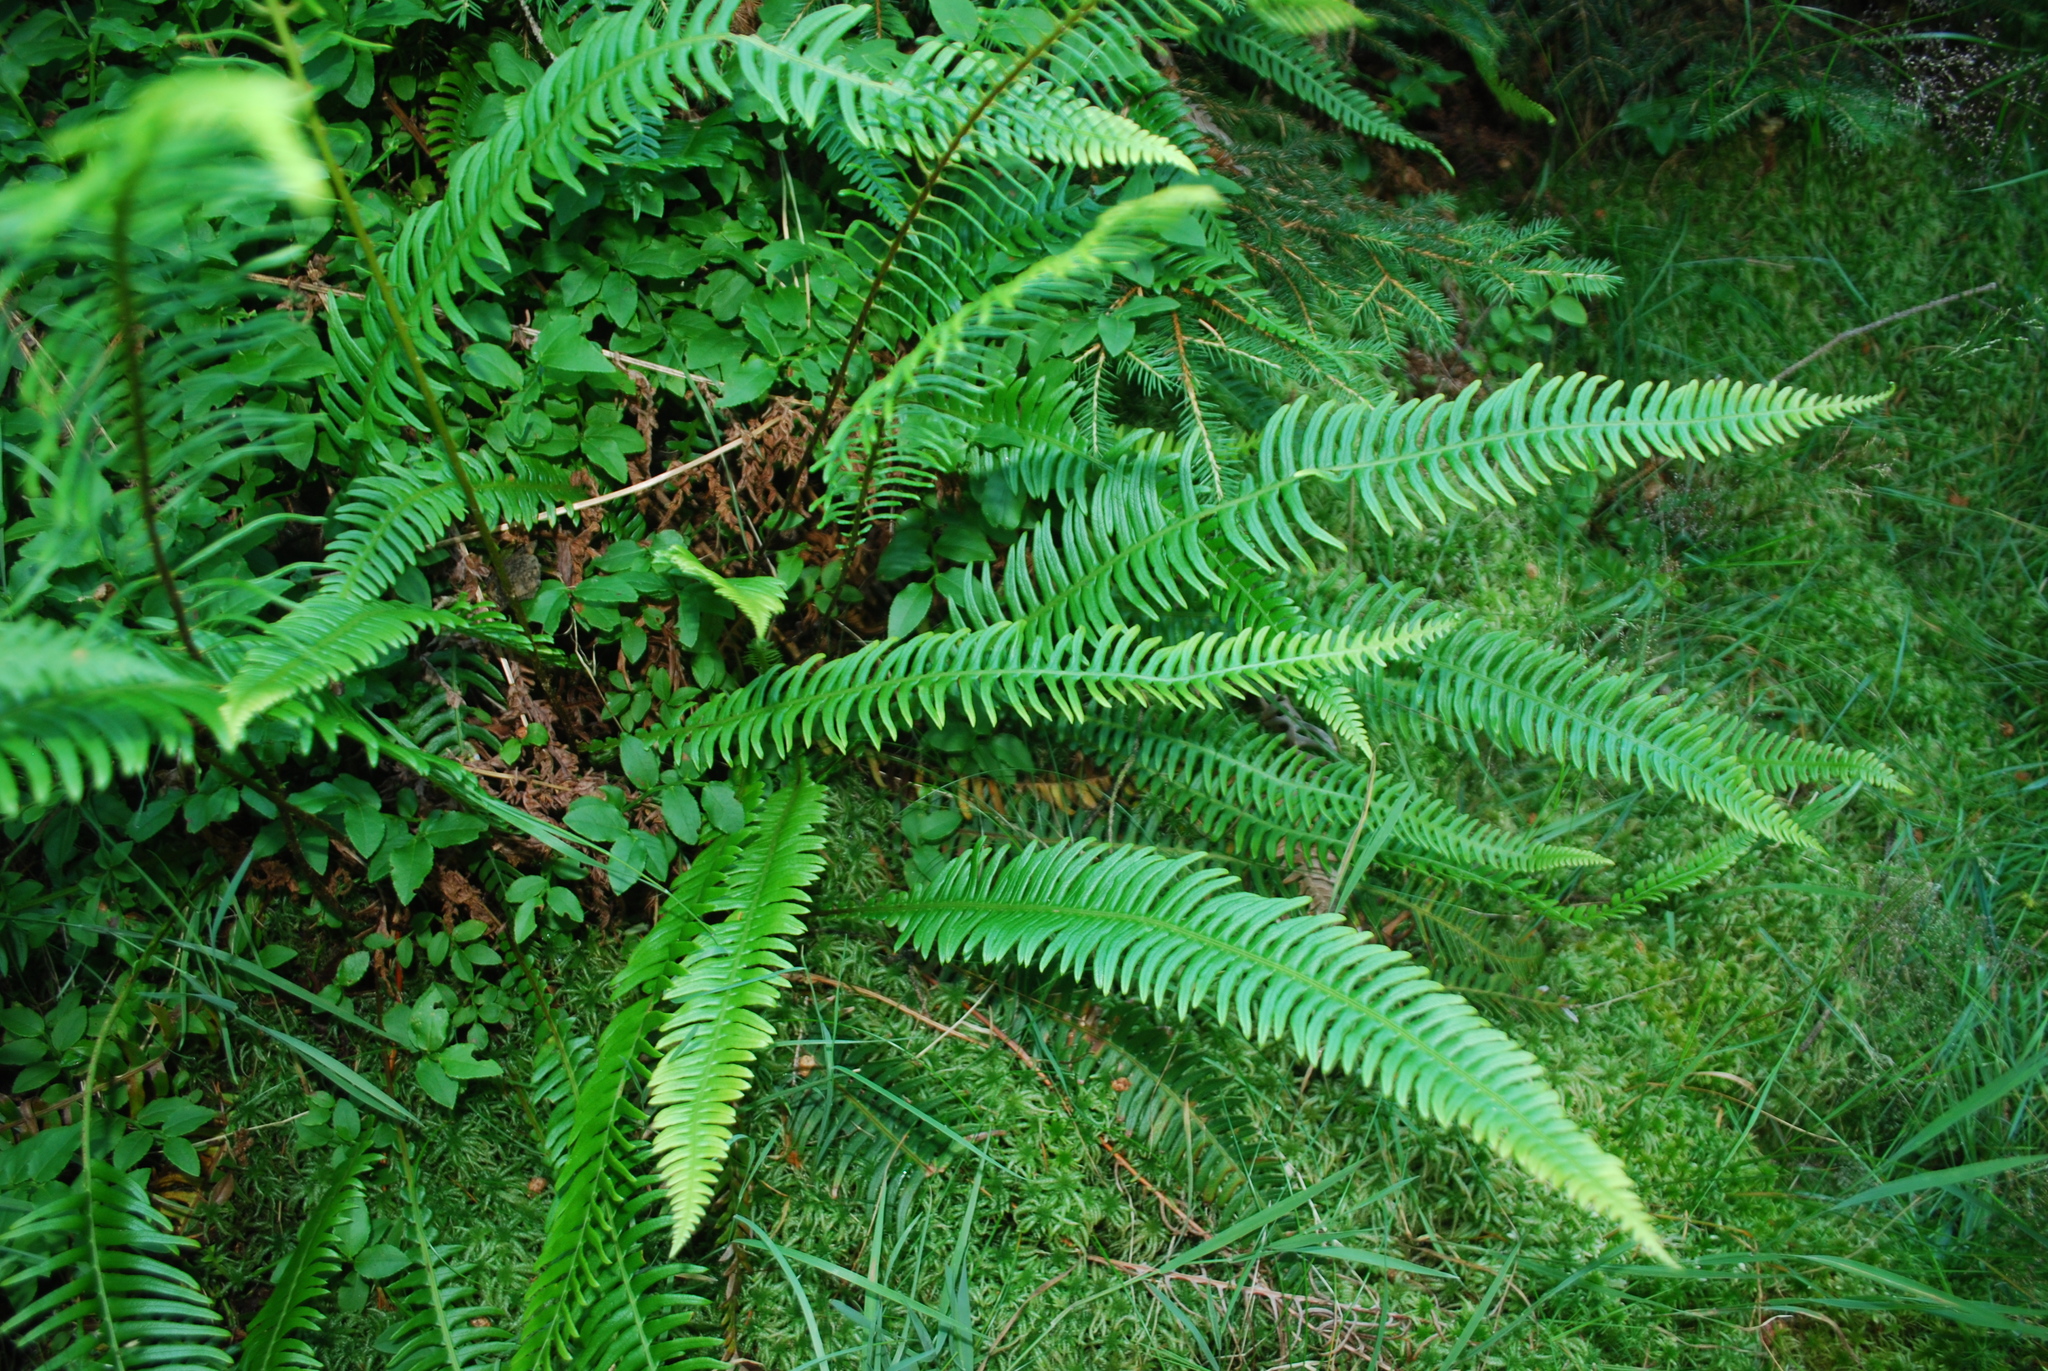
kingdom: Plantae
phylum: Tracheophyta
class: Polypodiopsida
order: Polypodiales
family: Blechnaceae
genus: Struthiopteris
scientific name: Struthiopteris spicant
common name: Deer fern
